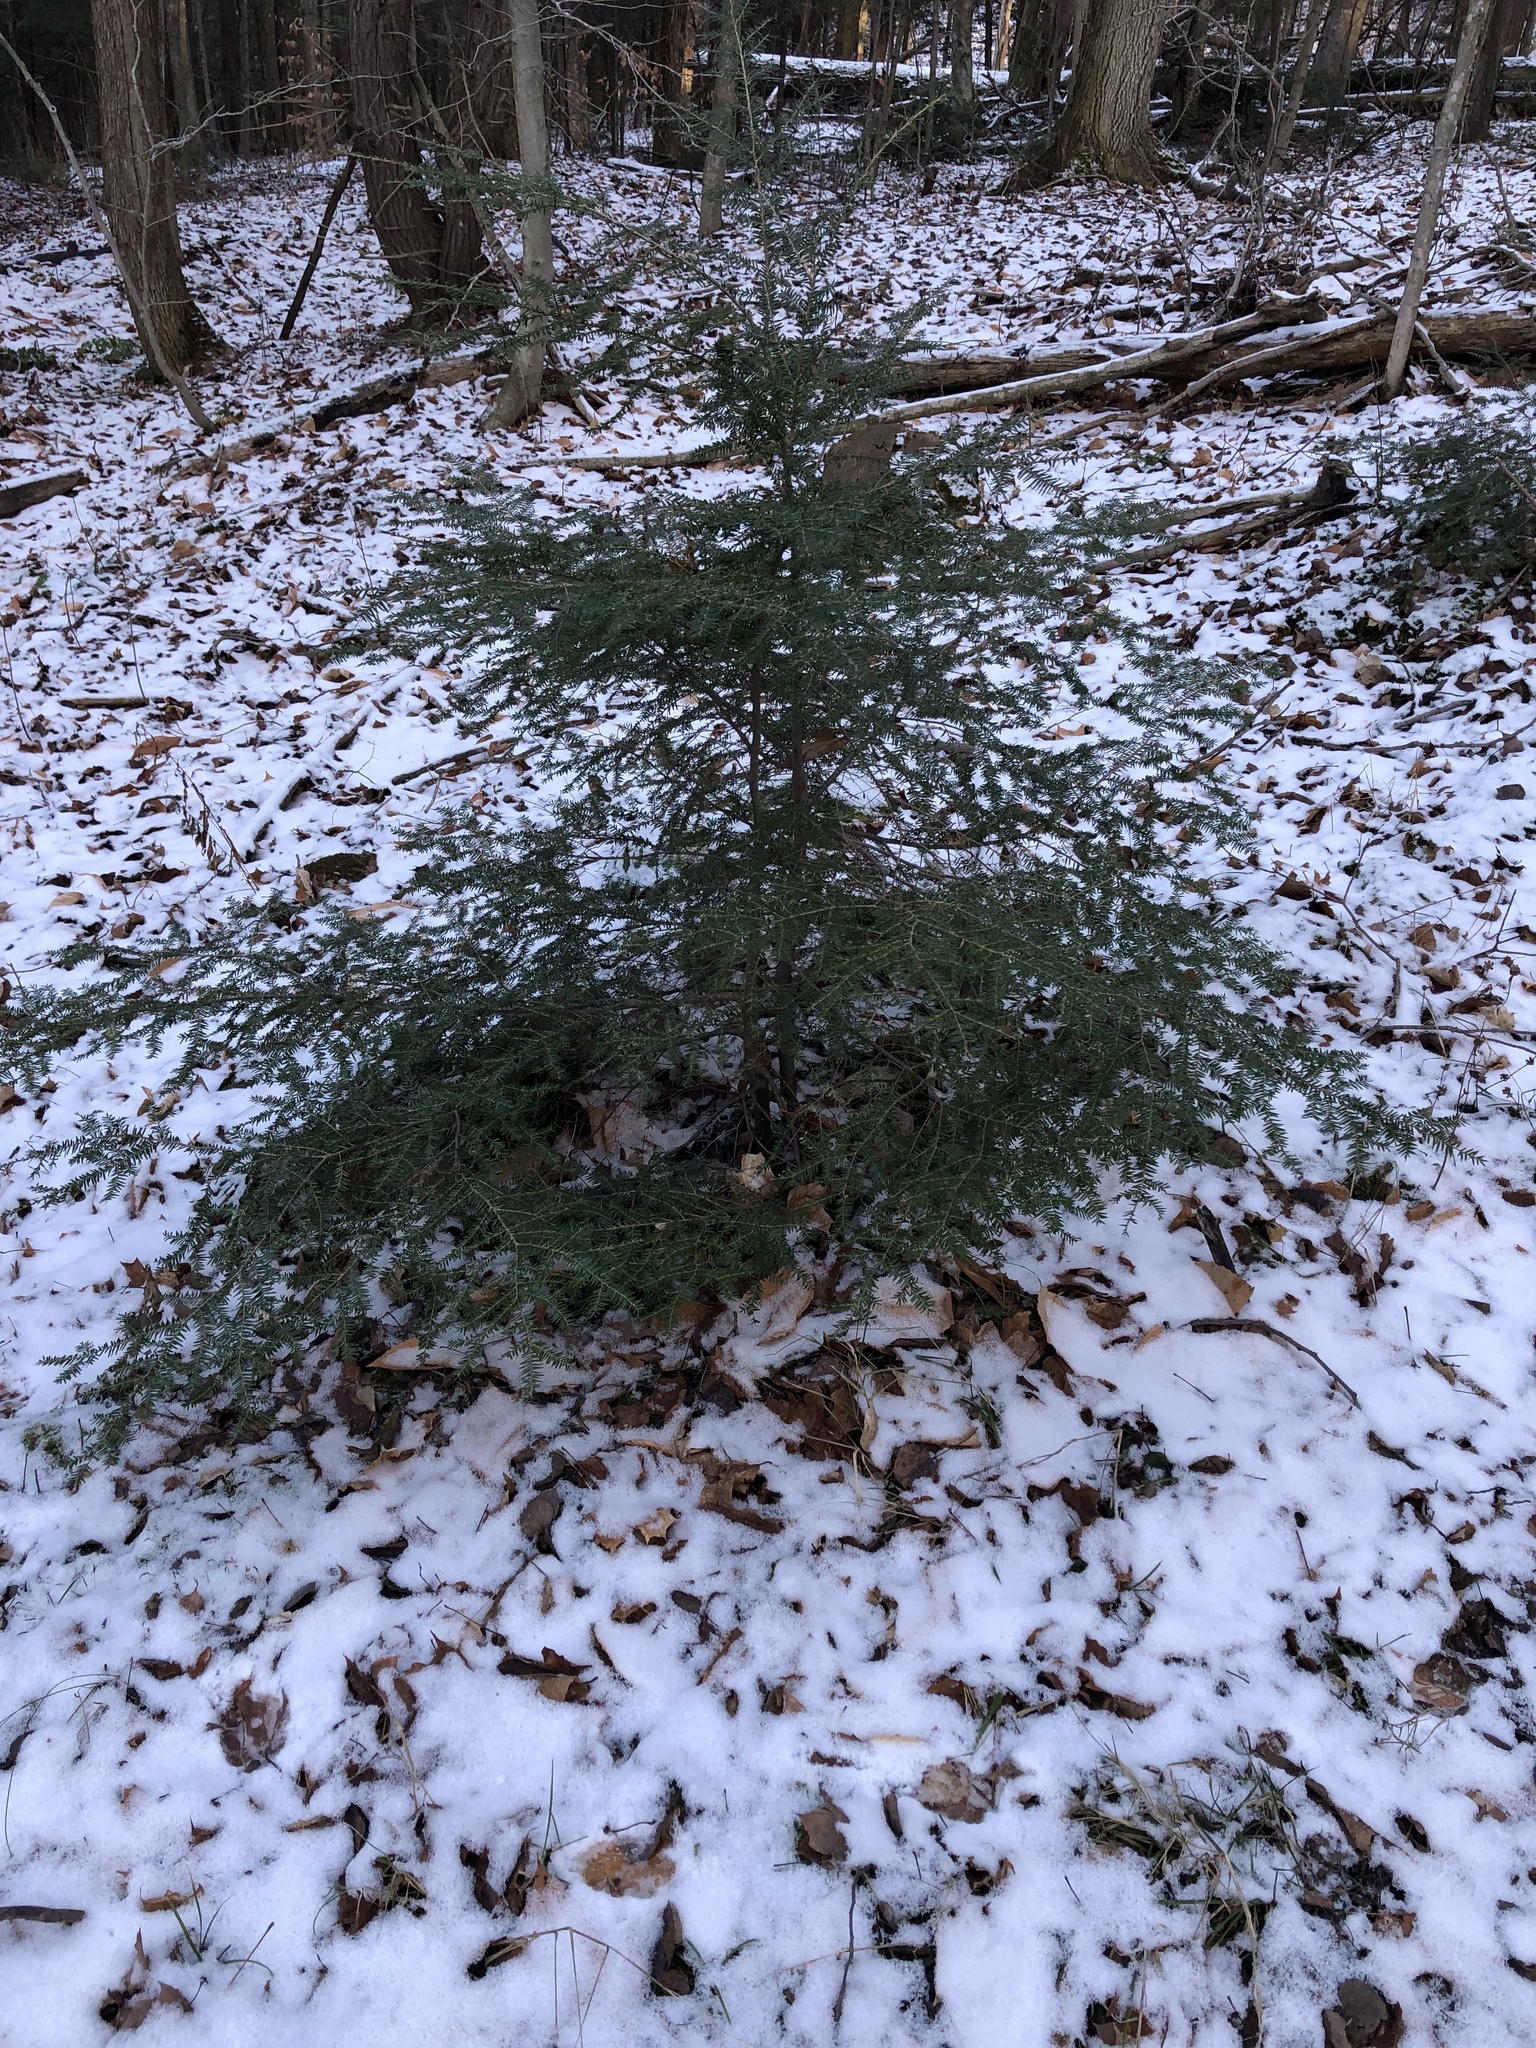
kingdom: Plantae
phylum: Tracheophyta
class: Pinopsida
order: Pinales
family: Pinaceae
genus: Tsuga
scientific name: Tsuga canadensis
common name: Eastern hemlock
